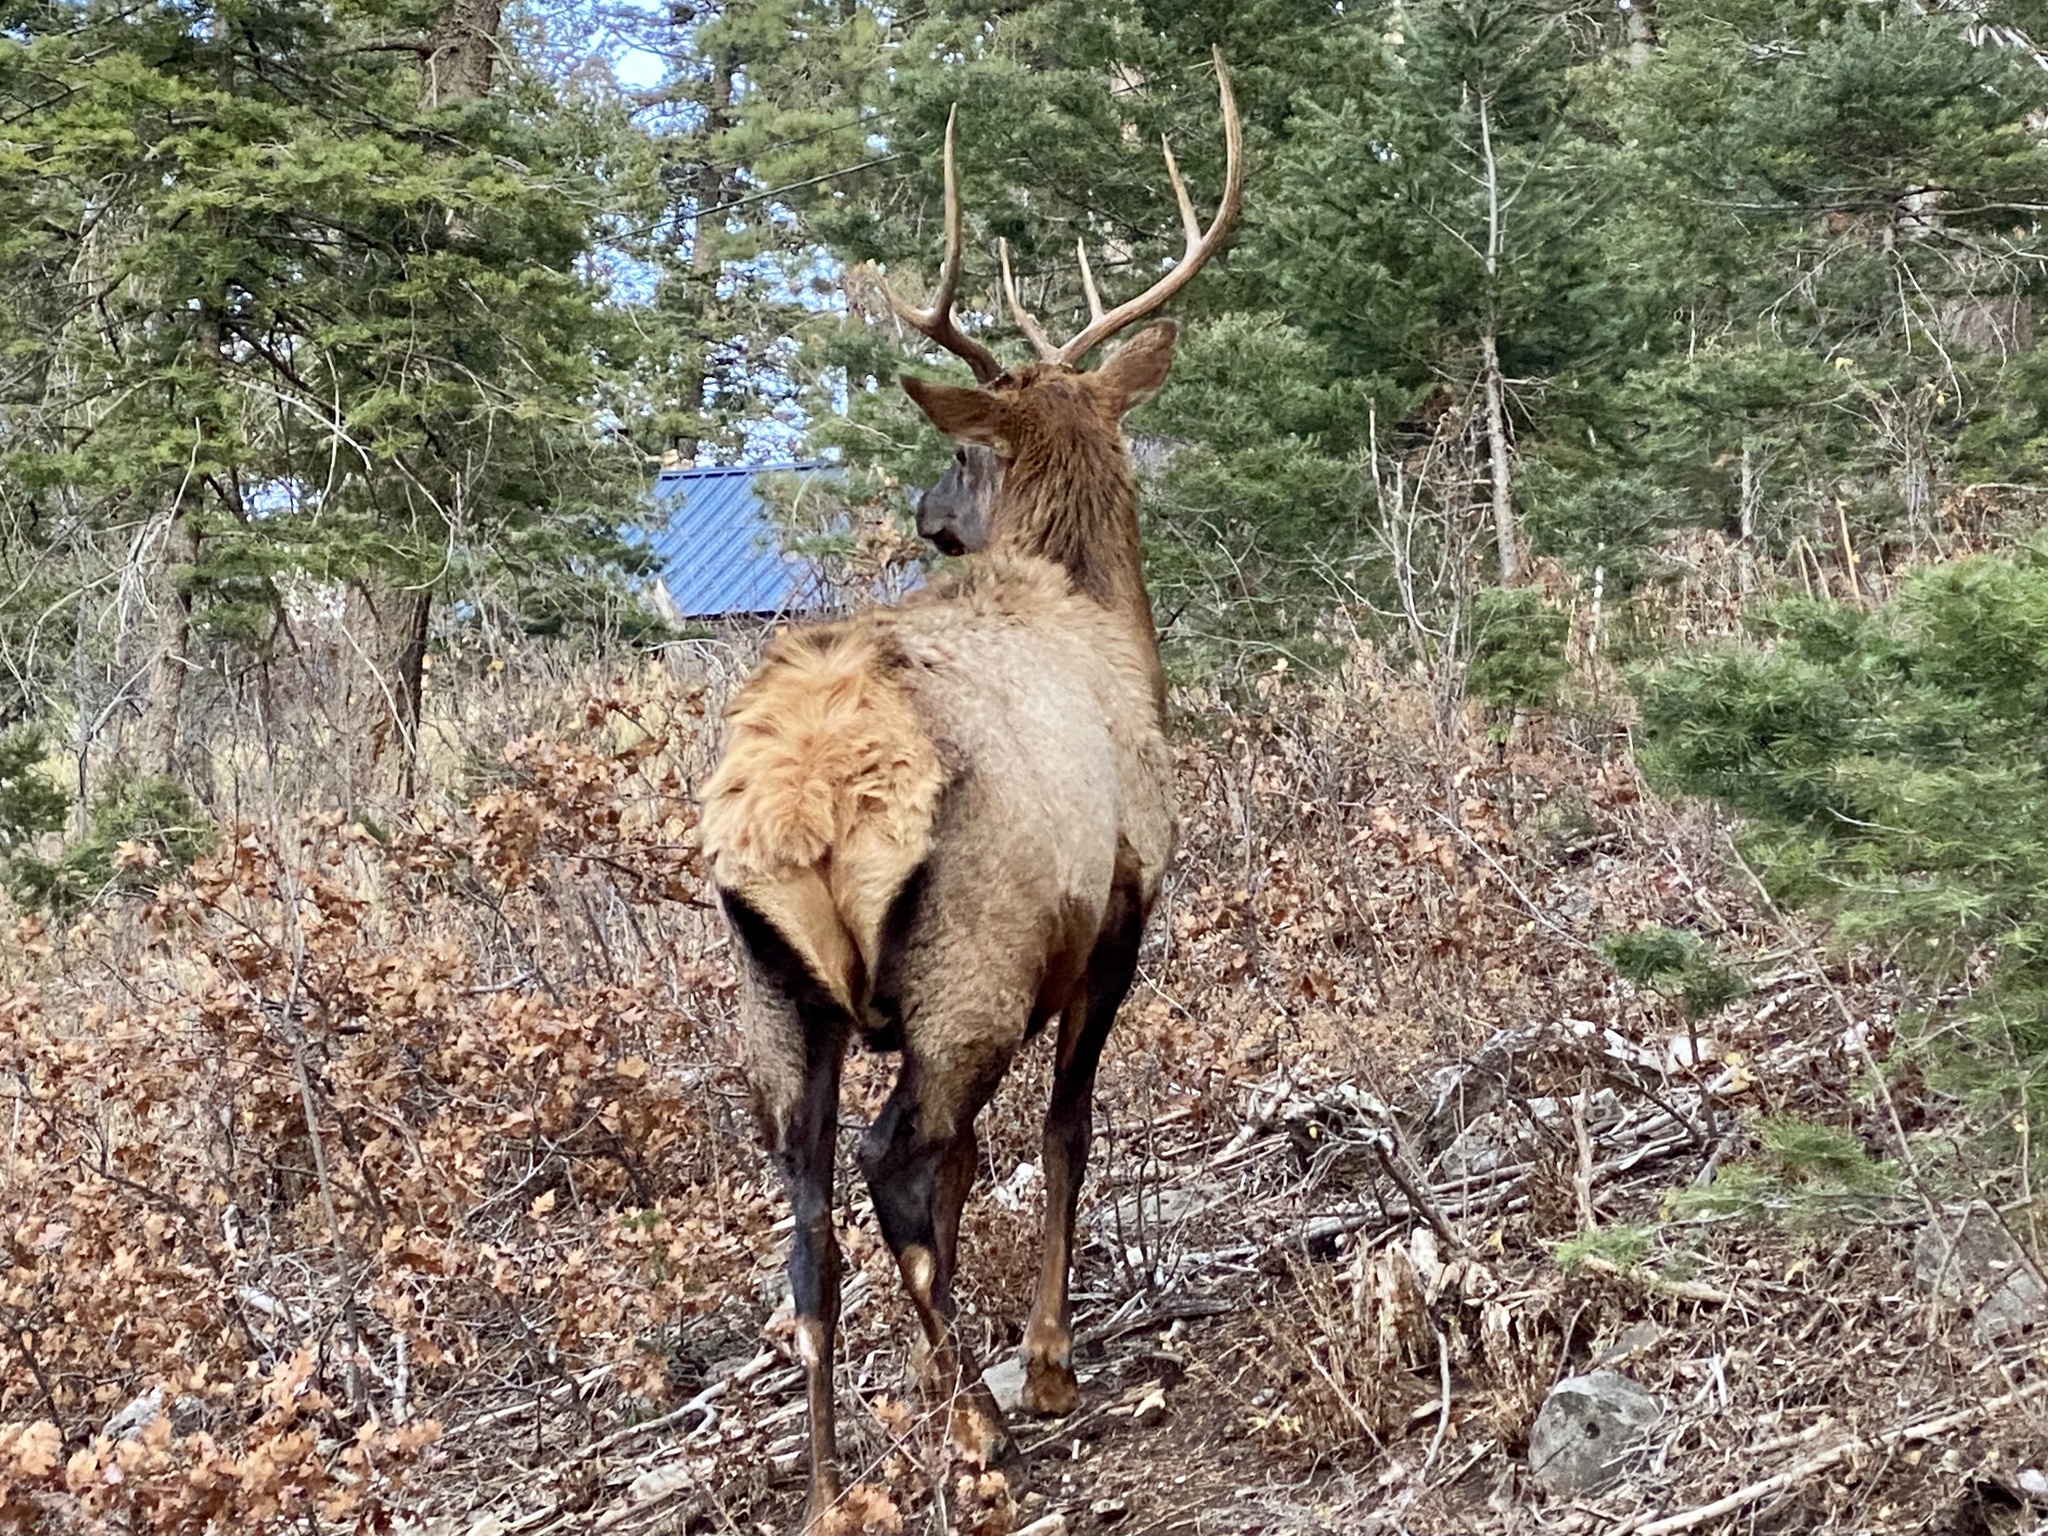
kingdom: Animalia
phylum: Chordata
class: Mammalia
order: Artiodactyla
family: Cervidae
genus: Cervus
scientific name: Cervus elaphus
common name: Red deer
